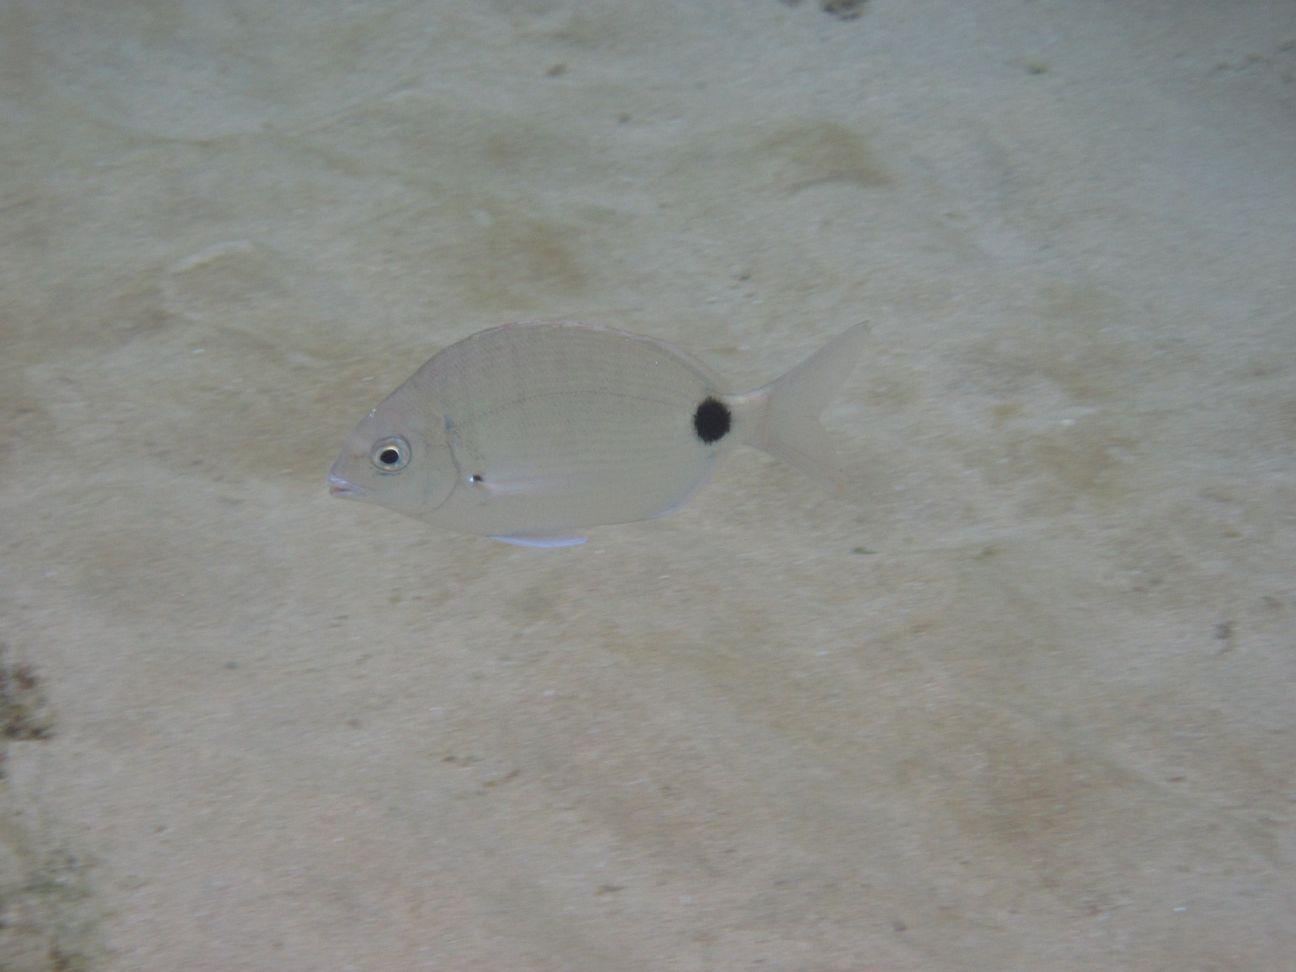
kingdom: Animalia
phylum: Chordata
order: Perciformes
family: Sparidae
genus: Diplodus
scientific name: Diplodus capensis
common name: Blacktail
